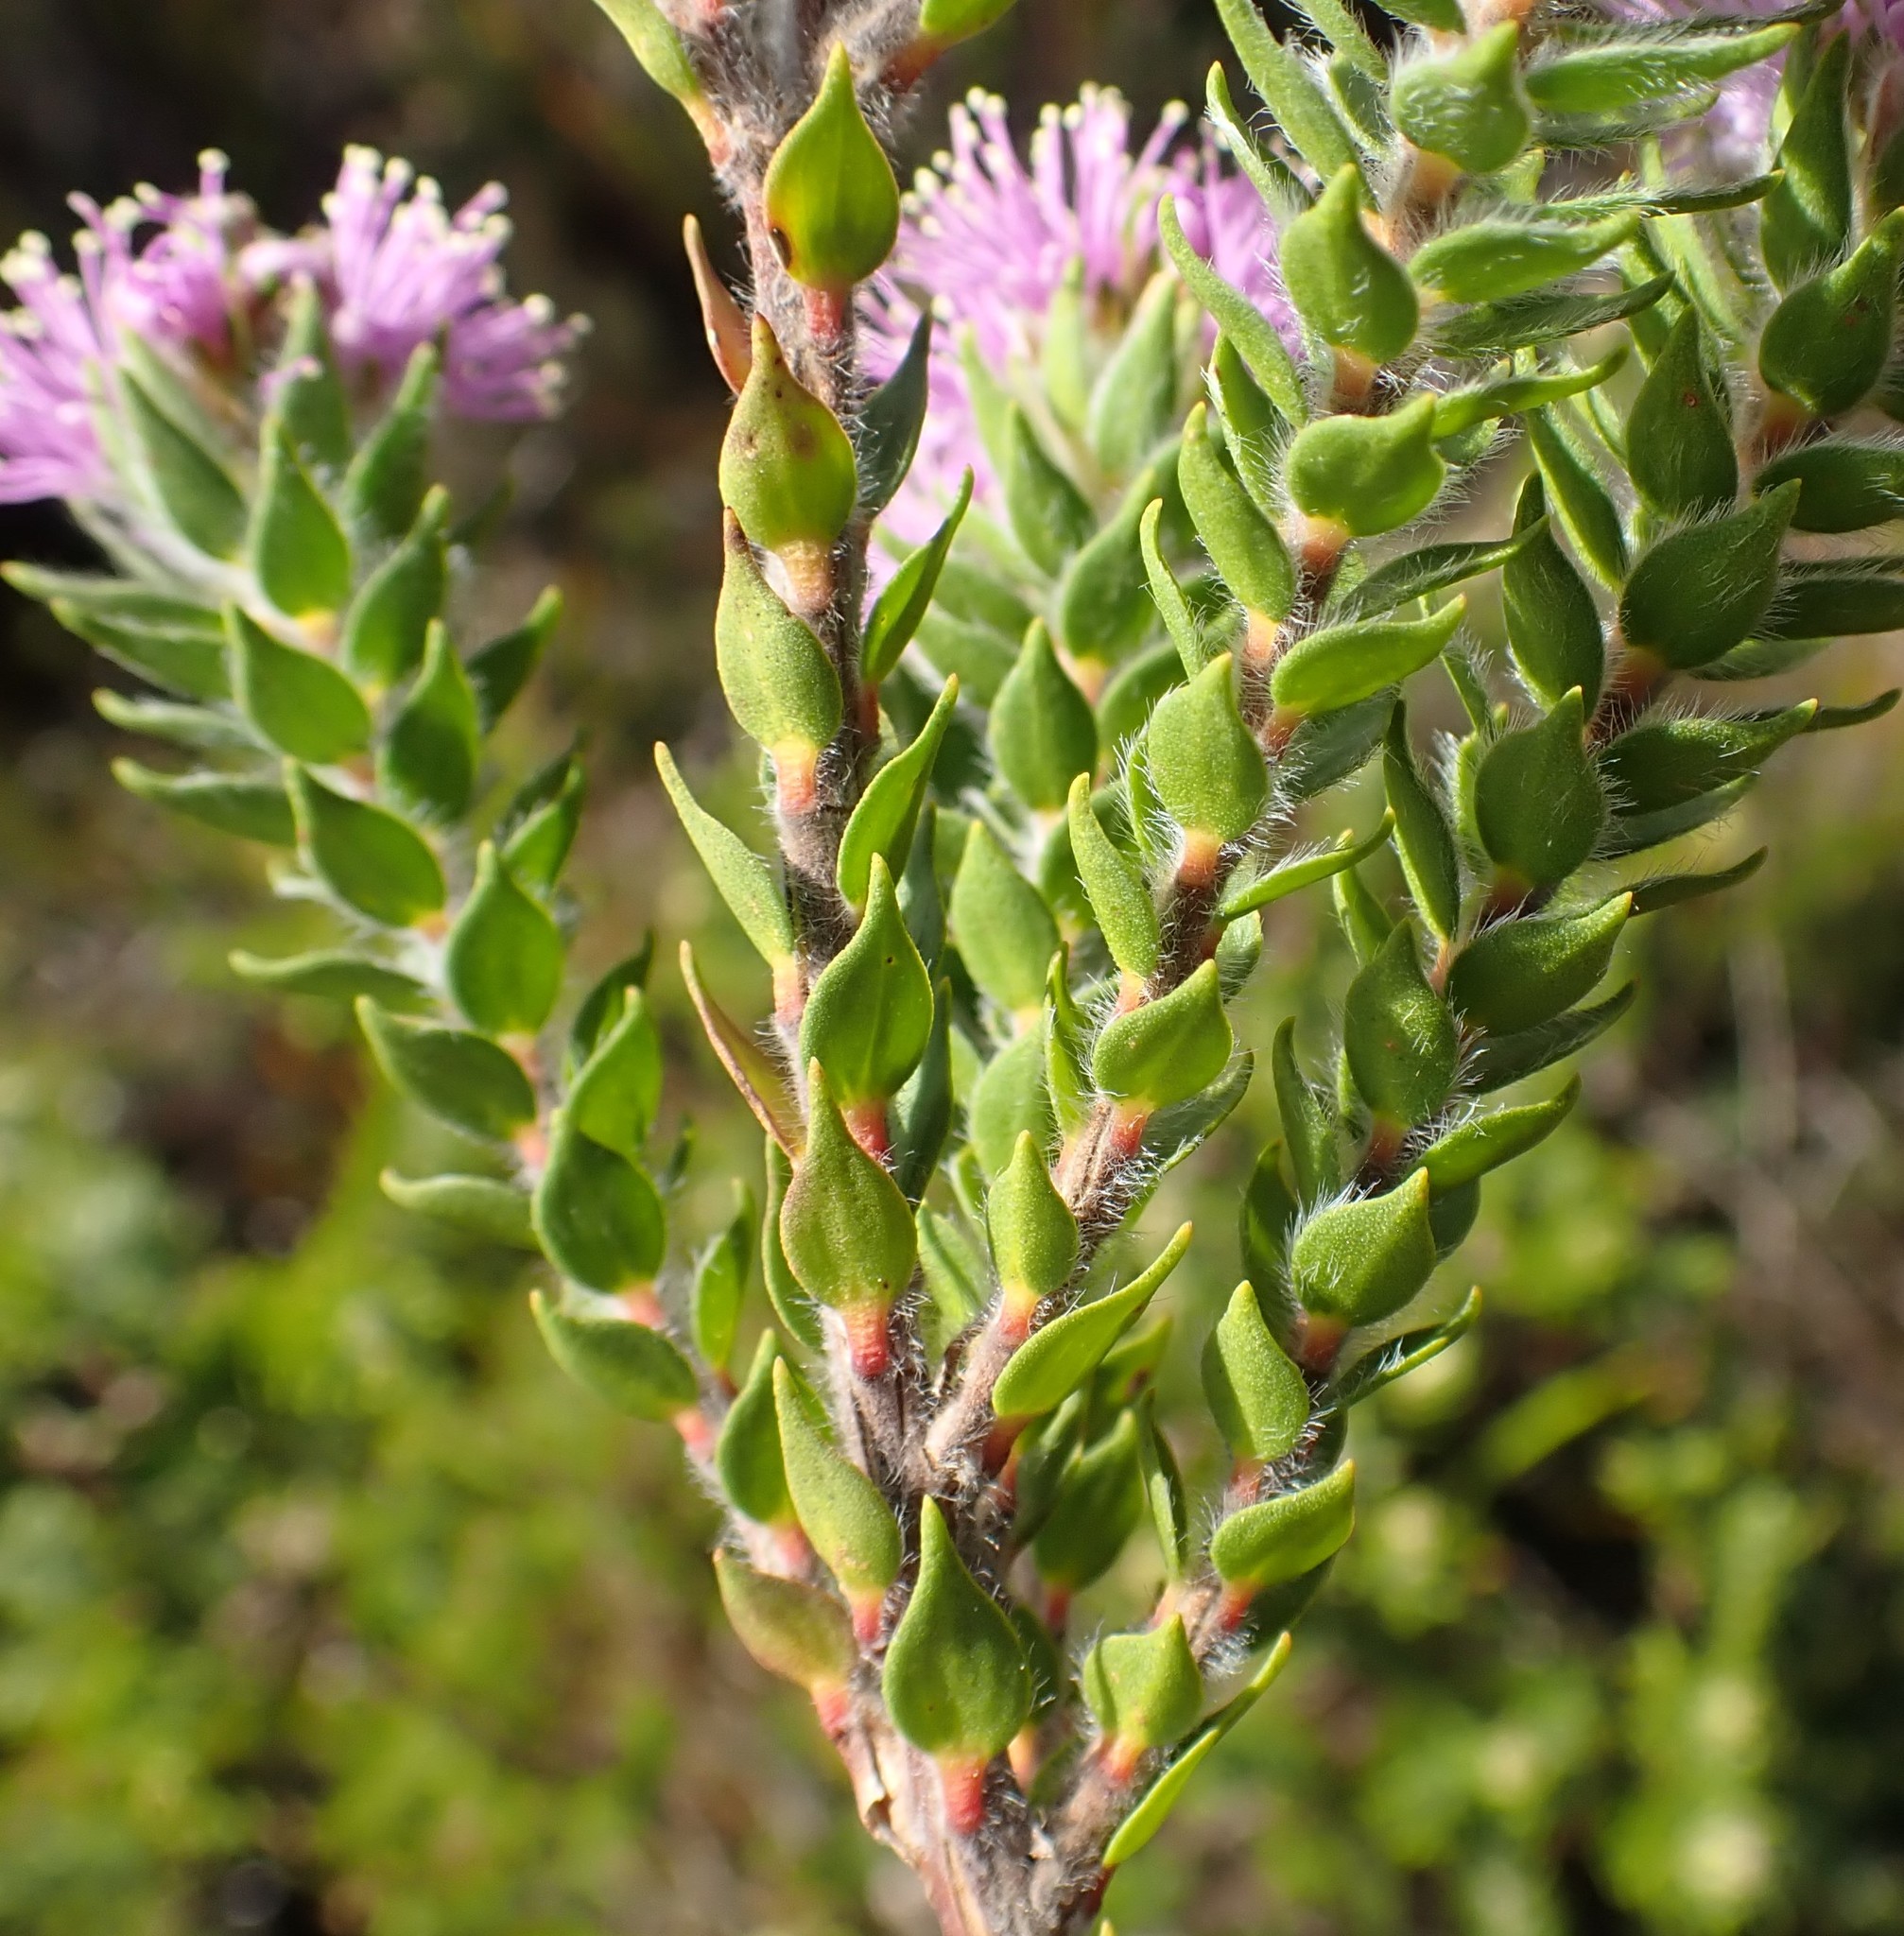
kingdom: Plantae
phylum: Tracheophyta
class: Magnoliopsida
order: Myrtales
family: Myrtaceae
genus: Melaleuca
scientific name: Melaleuca squamea
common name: Swamp melaleuca
